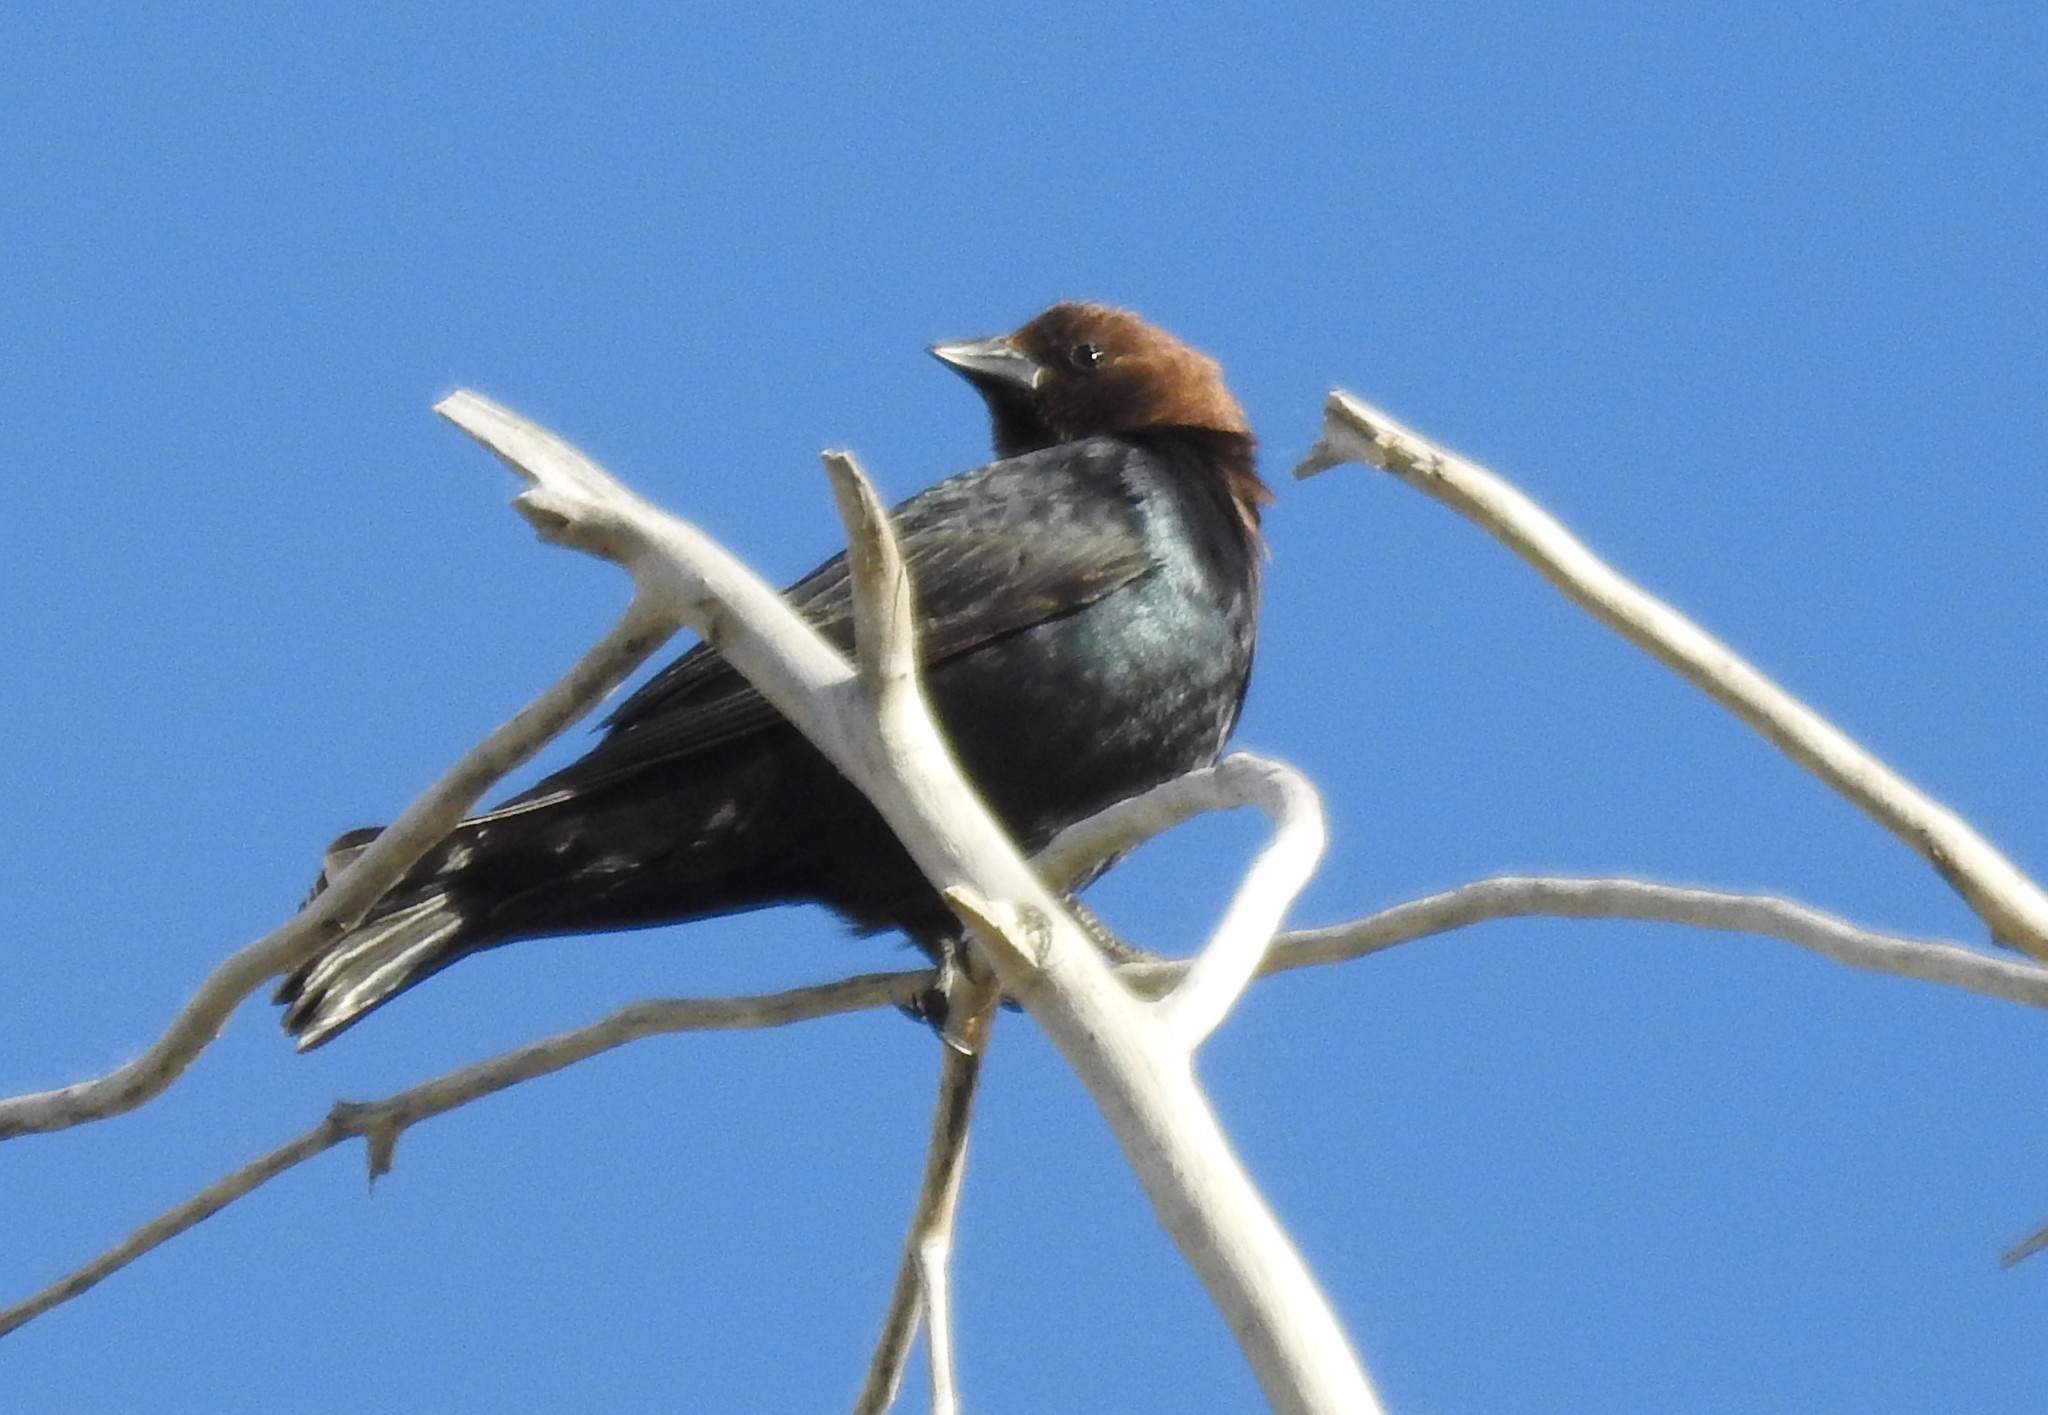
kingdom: Animalia
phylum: Chordata
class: Aves
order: Passeriformes
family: Icteridae
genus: Molothrus
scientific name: Molothrus ater
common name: Brown-headed cowbird
